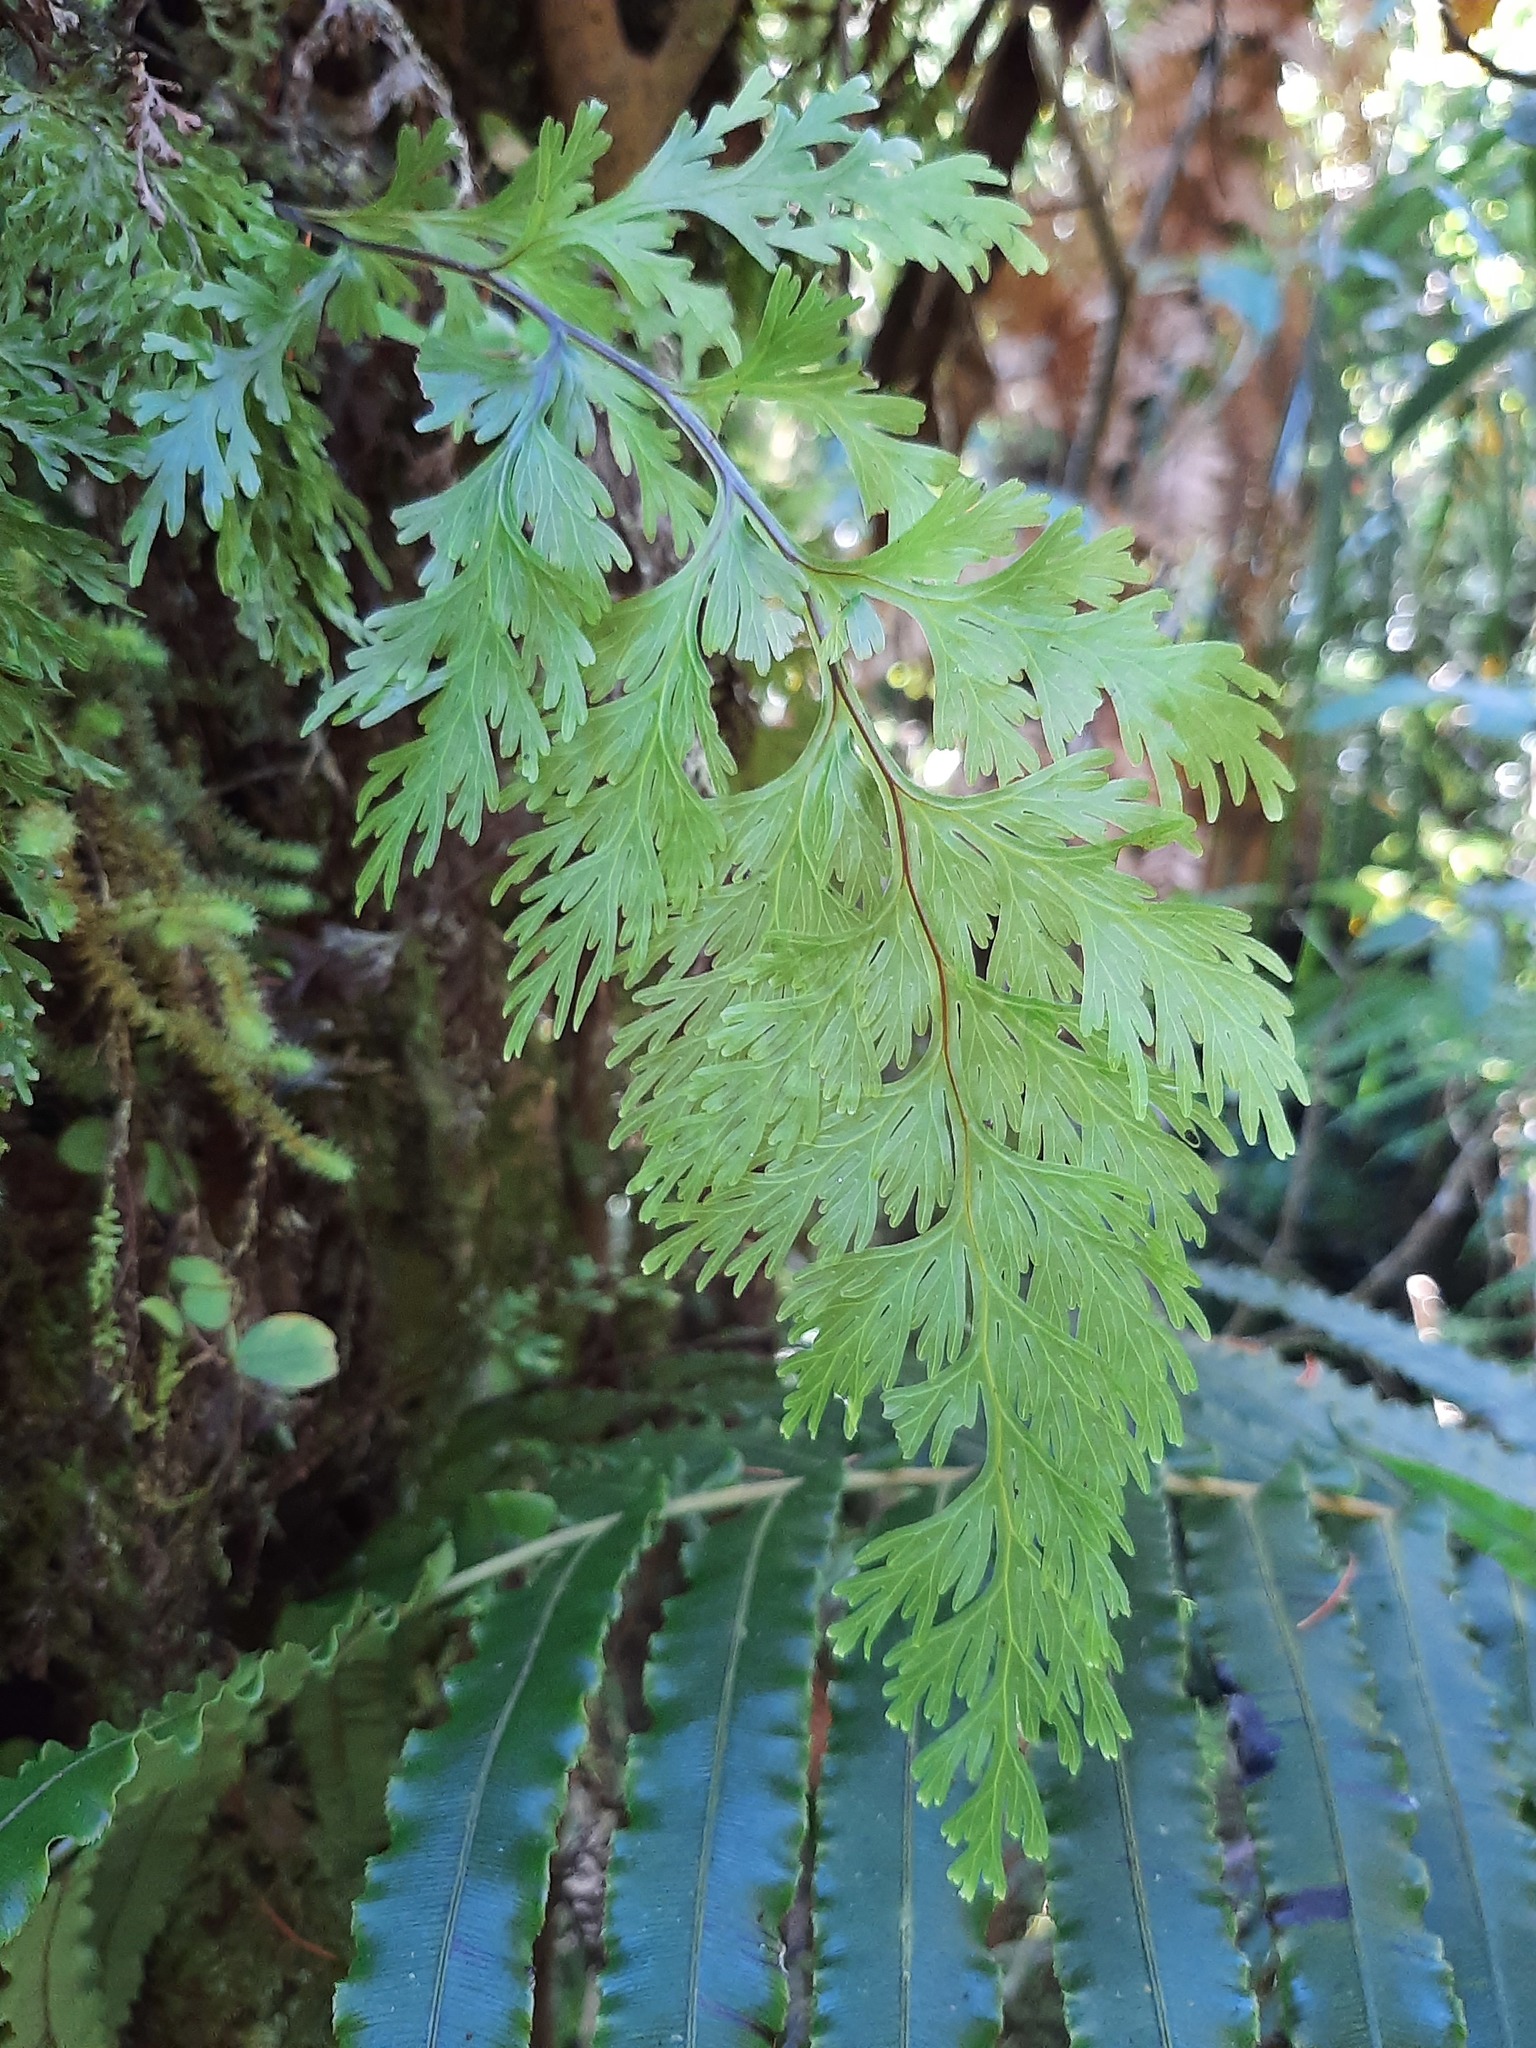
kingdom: Plantae
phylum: Tracheophyta
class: Polypodiopsida
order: Hymenophyllales
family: Hymenophyllaceae
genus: Hymenophyllum
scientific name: Hymenophyllum dilatatum
